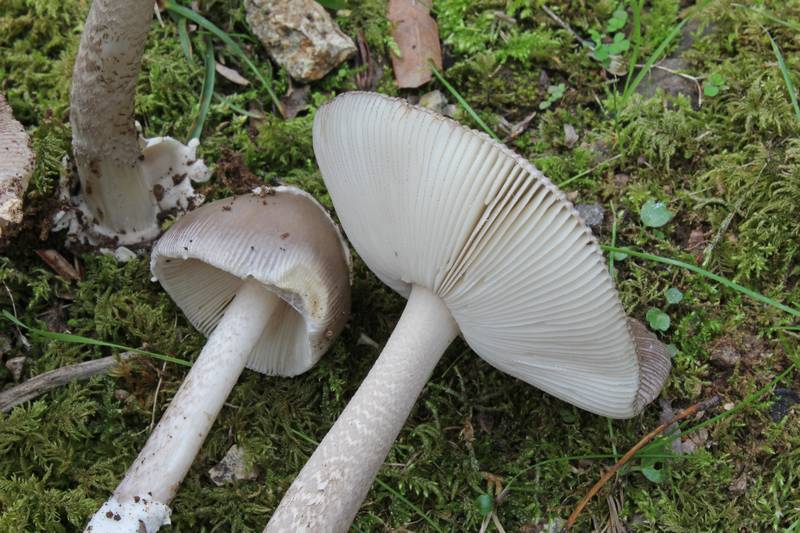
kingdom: Fungi
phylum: Basidiomycota
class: Agaricomycetes
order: Agaricales
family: Amanitaceae
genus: Amanita
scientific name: Amanita simulans
